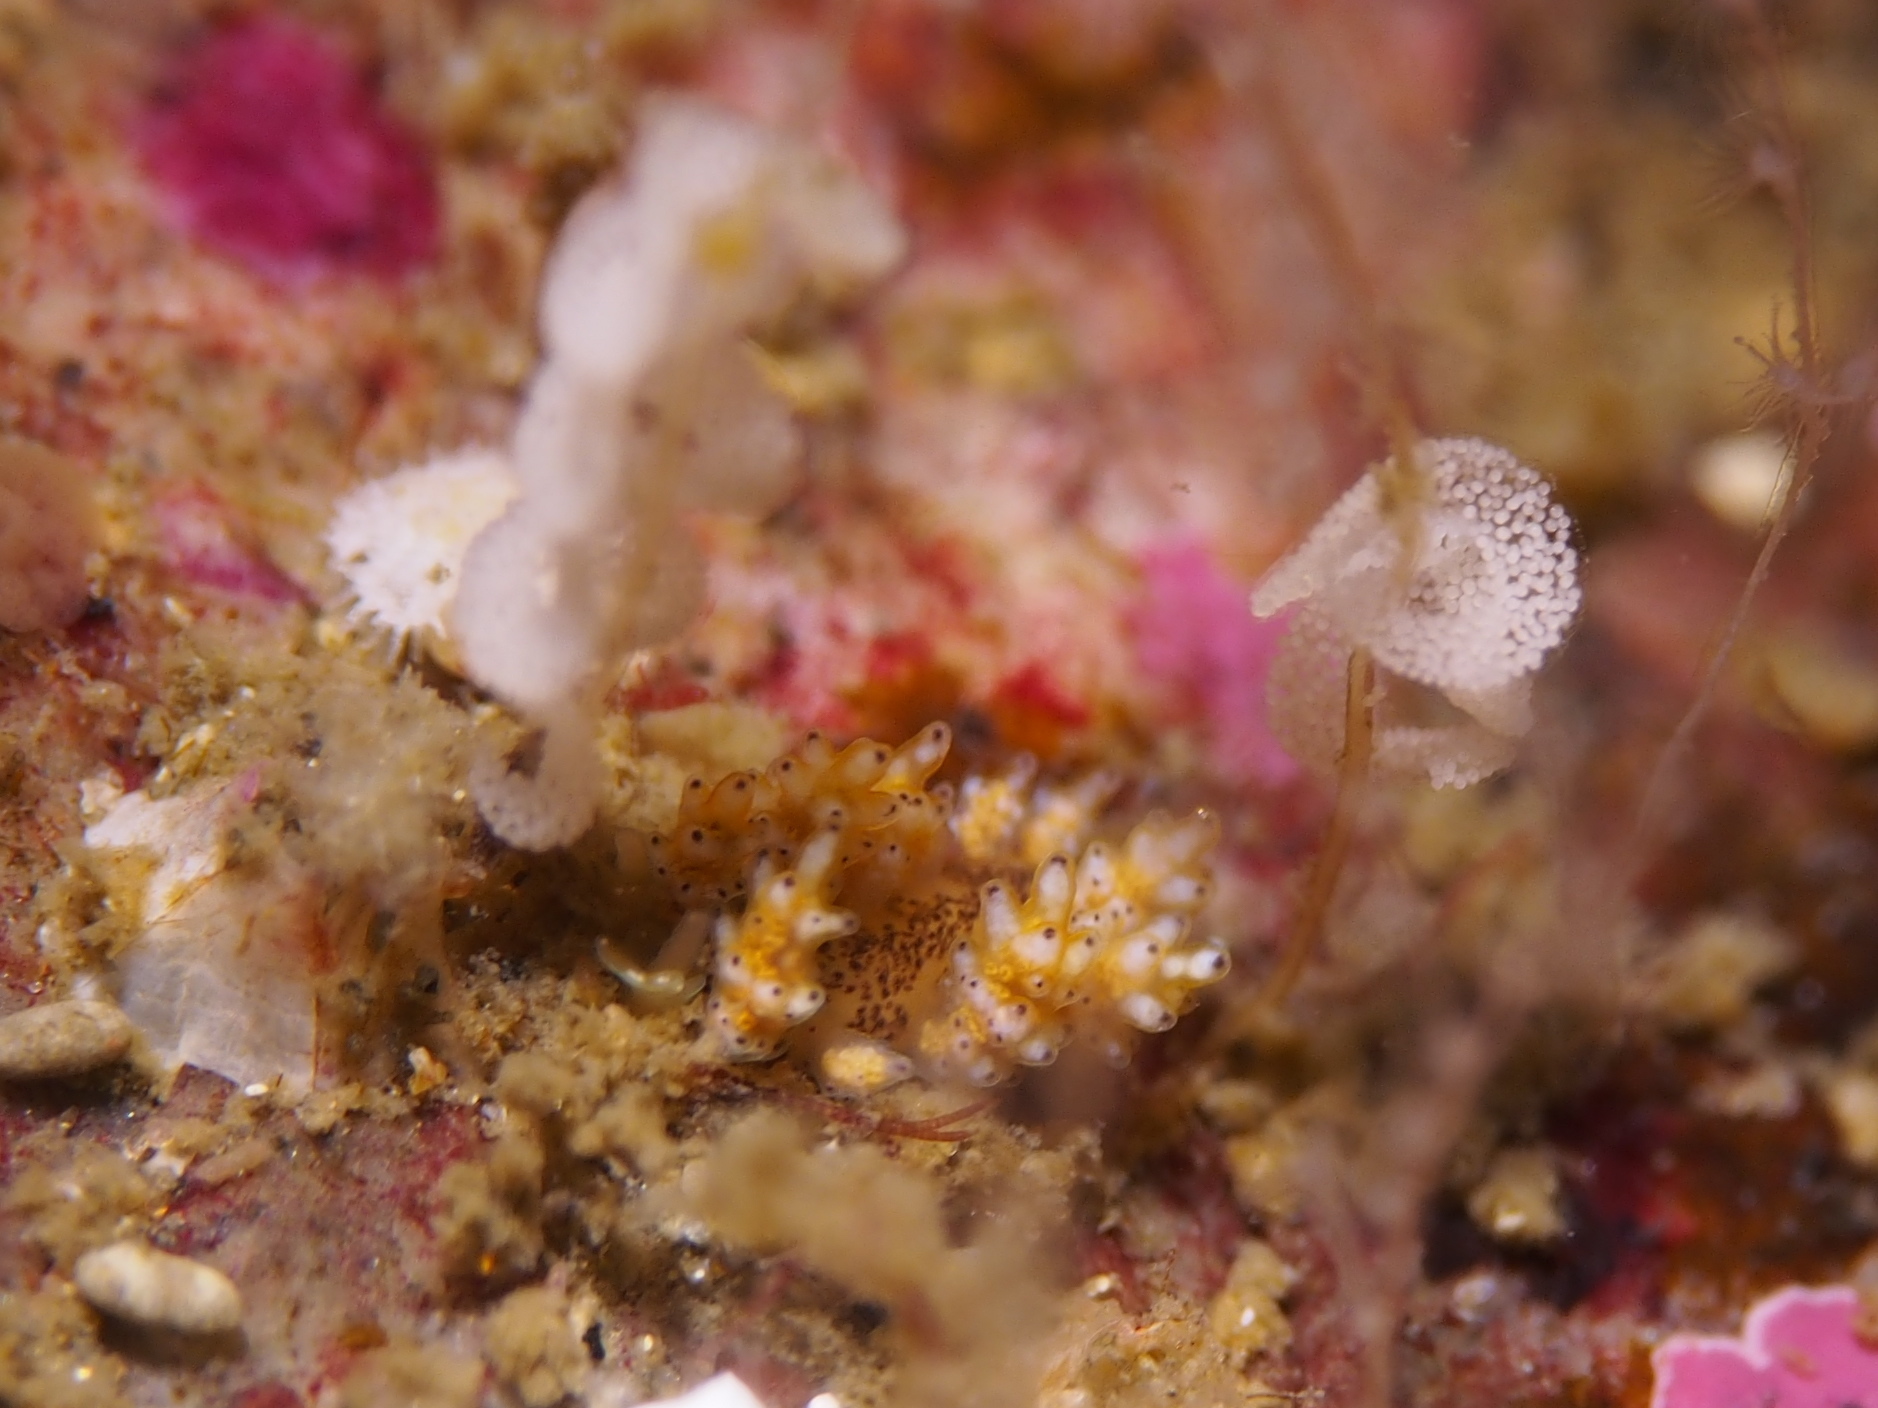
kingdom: Animalia
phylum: Mollusca
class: Gastropoda
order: Nudibranchia
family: Dotidae
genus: Doto
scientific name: Doto maculata
